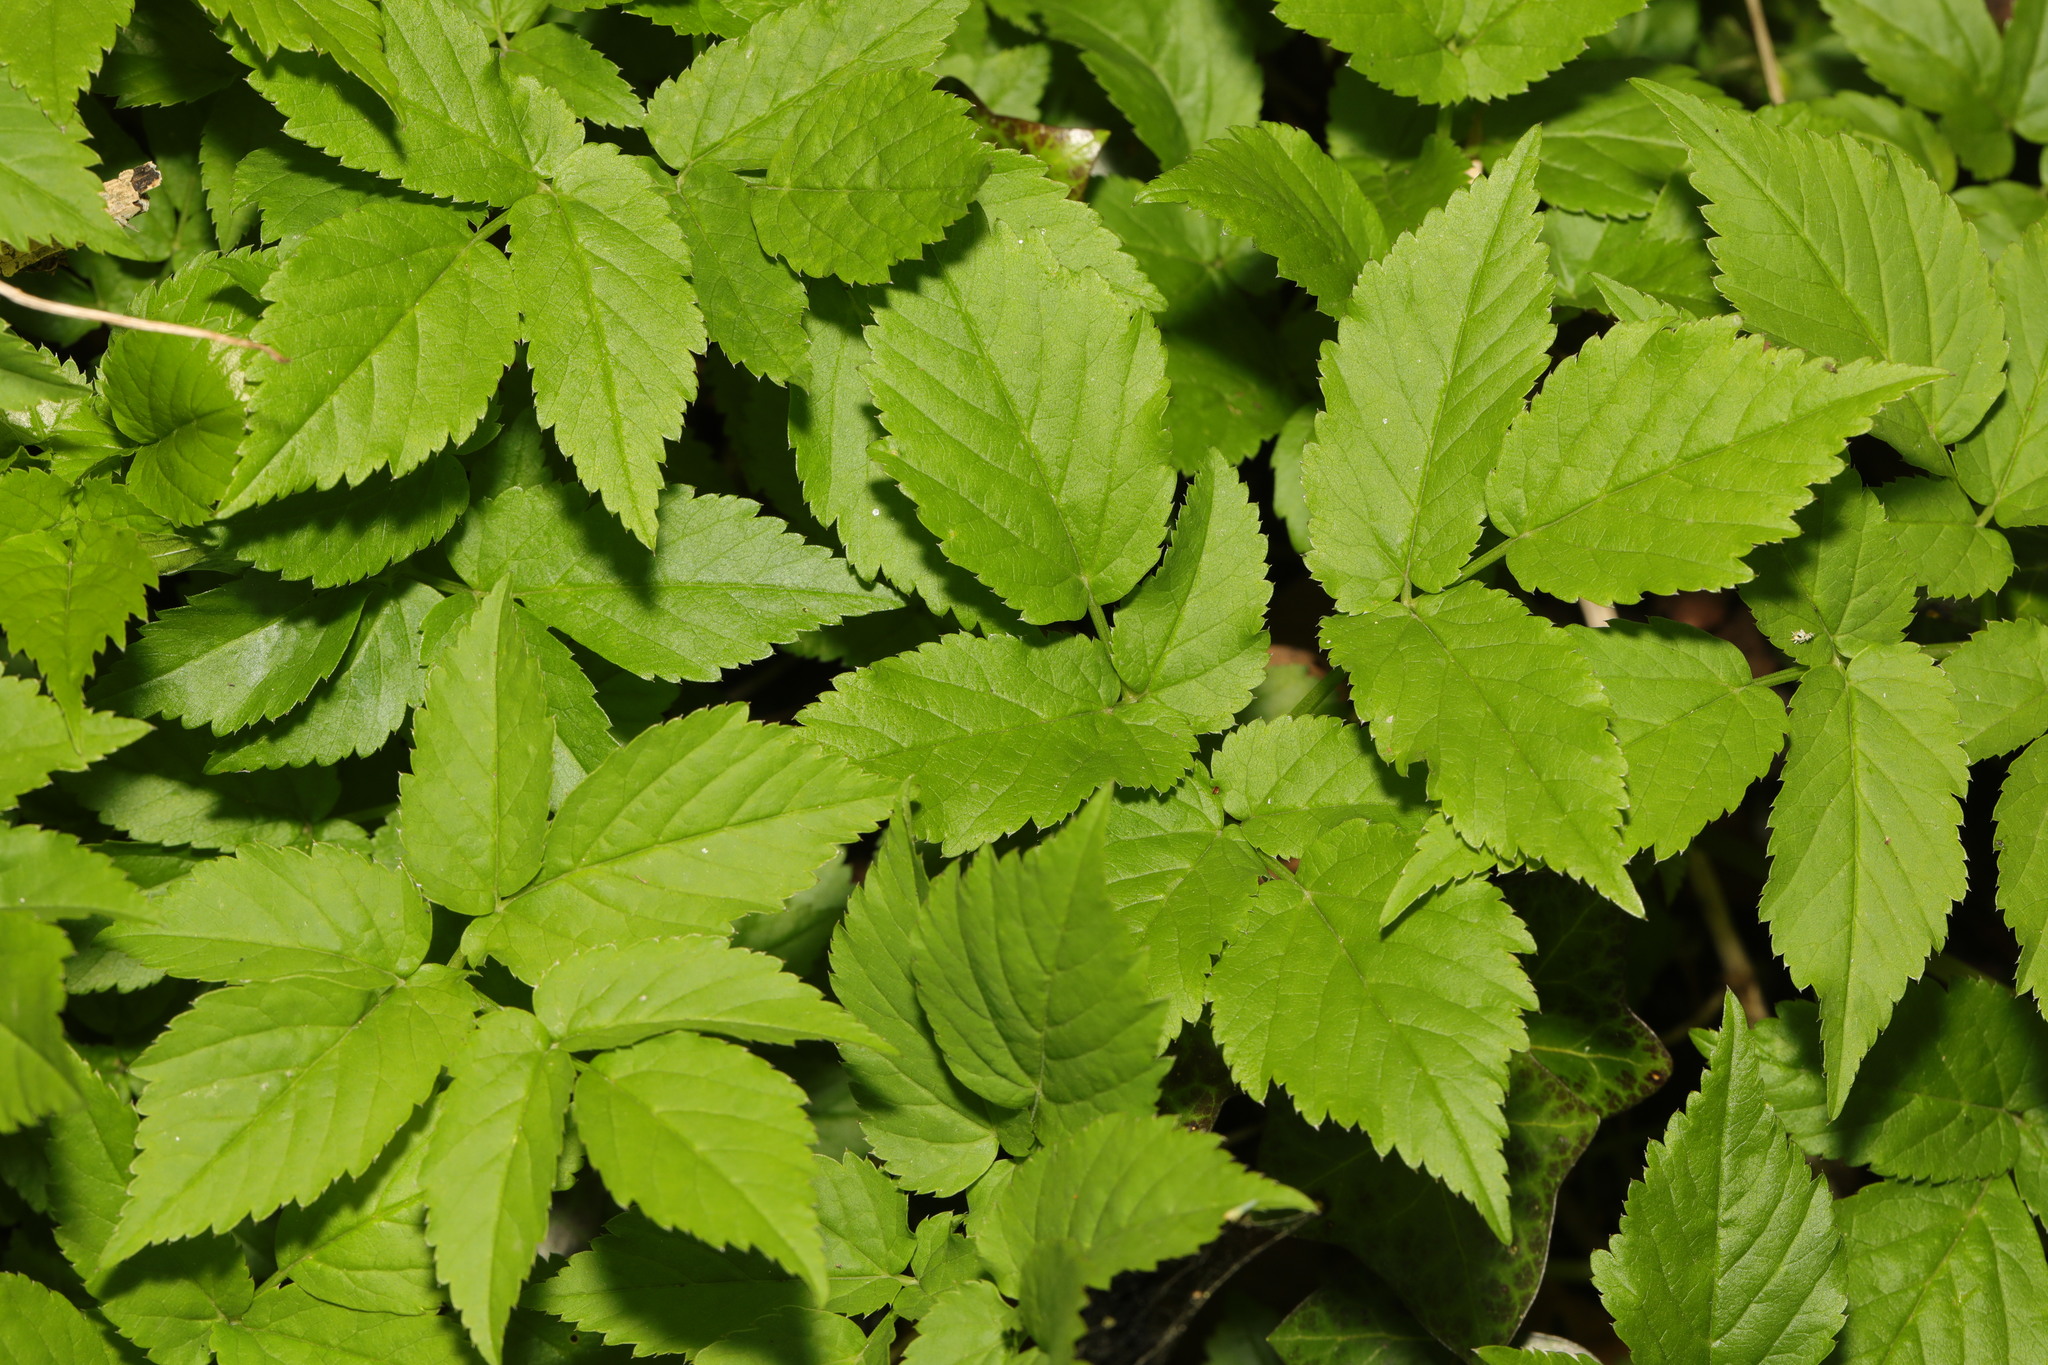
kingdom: Plantae
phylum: Tracheophyta
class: Magnoliopsida
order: Apiales
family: Apiaceae
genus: Aegopodium
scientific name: Aegopodium podagraria
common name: Ground-elder
